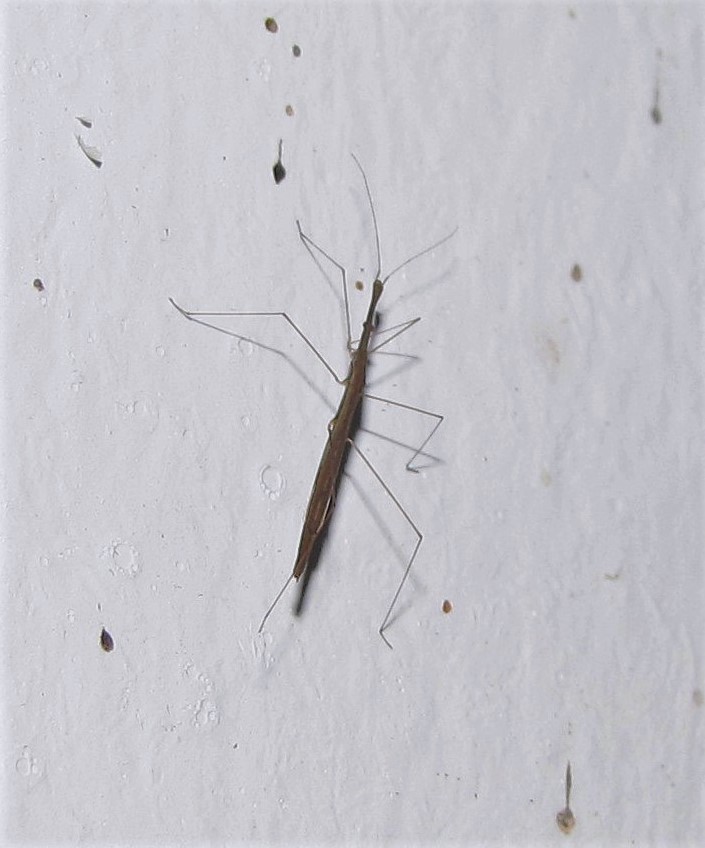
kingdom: Animalia
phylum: Arthropoda
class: Insecta
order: Hemiptera
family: Hydrometridae
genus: Hydrometra
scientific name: Hydrometra argentina
